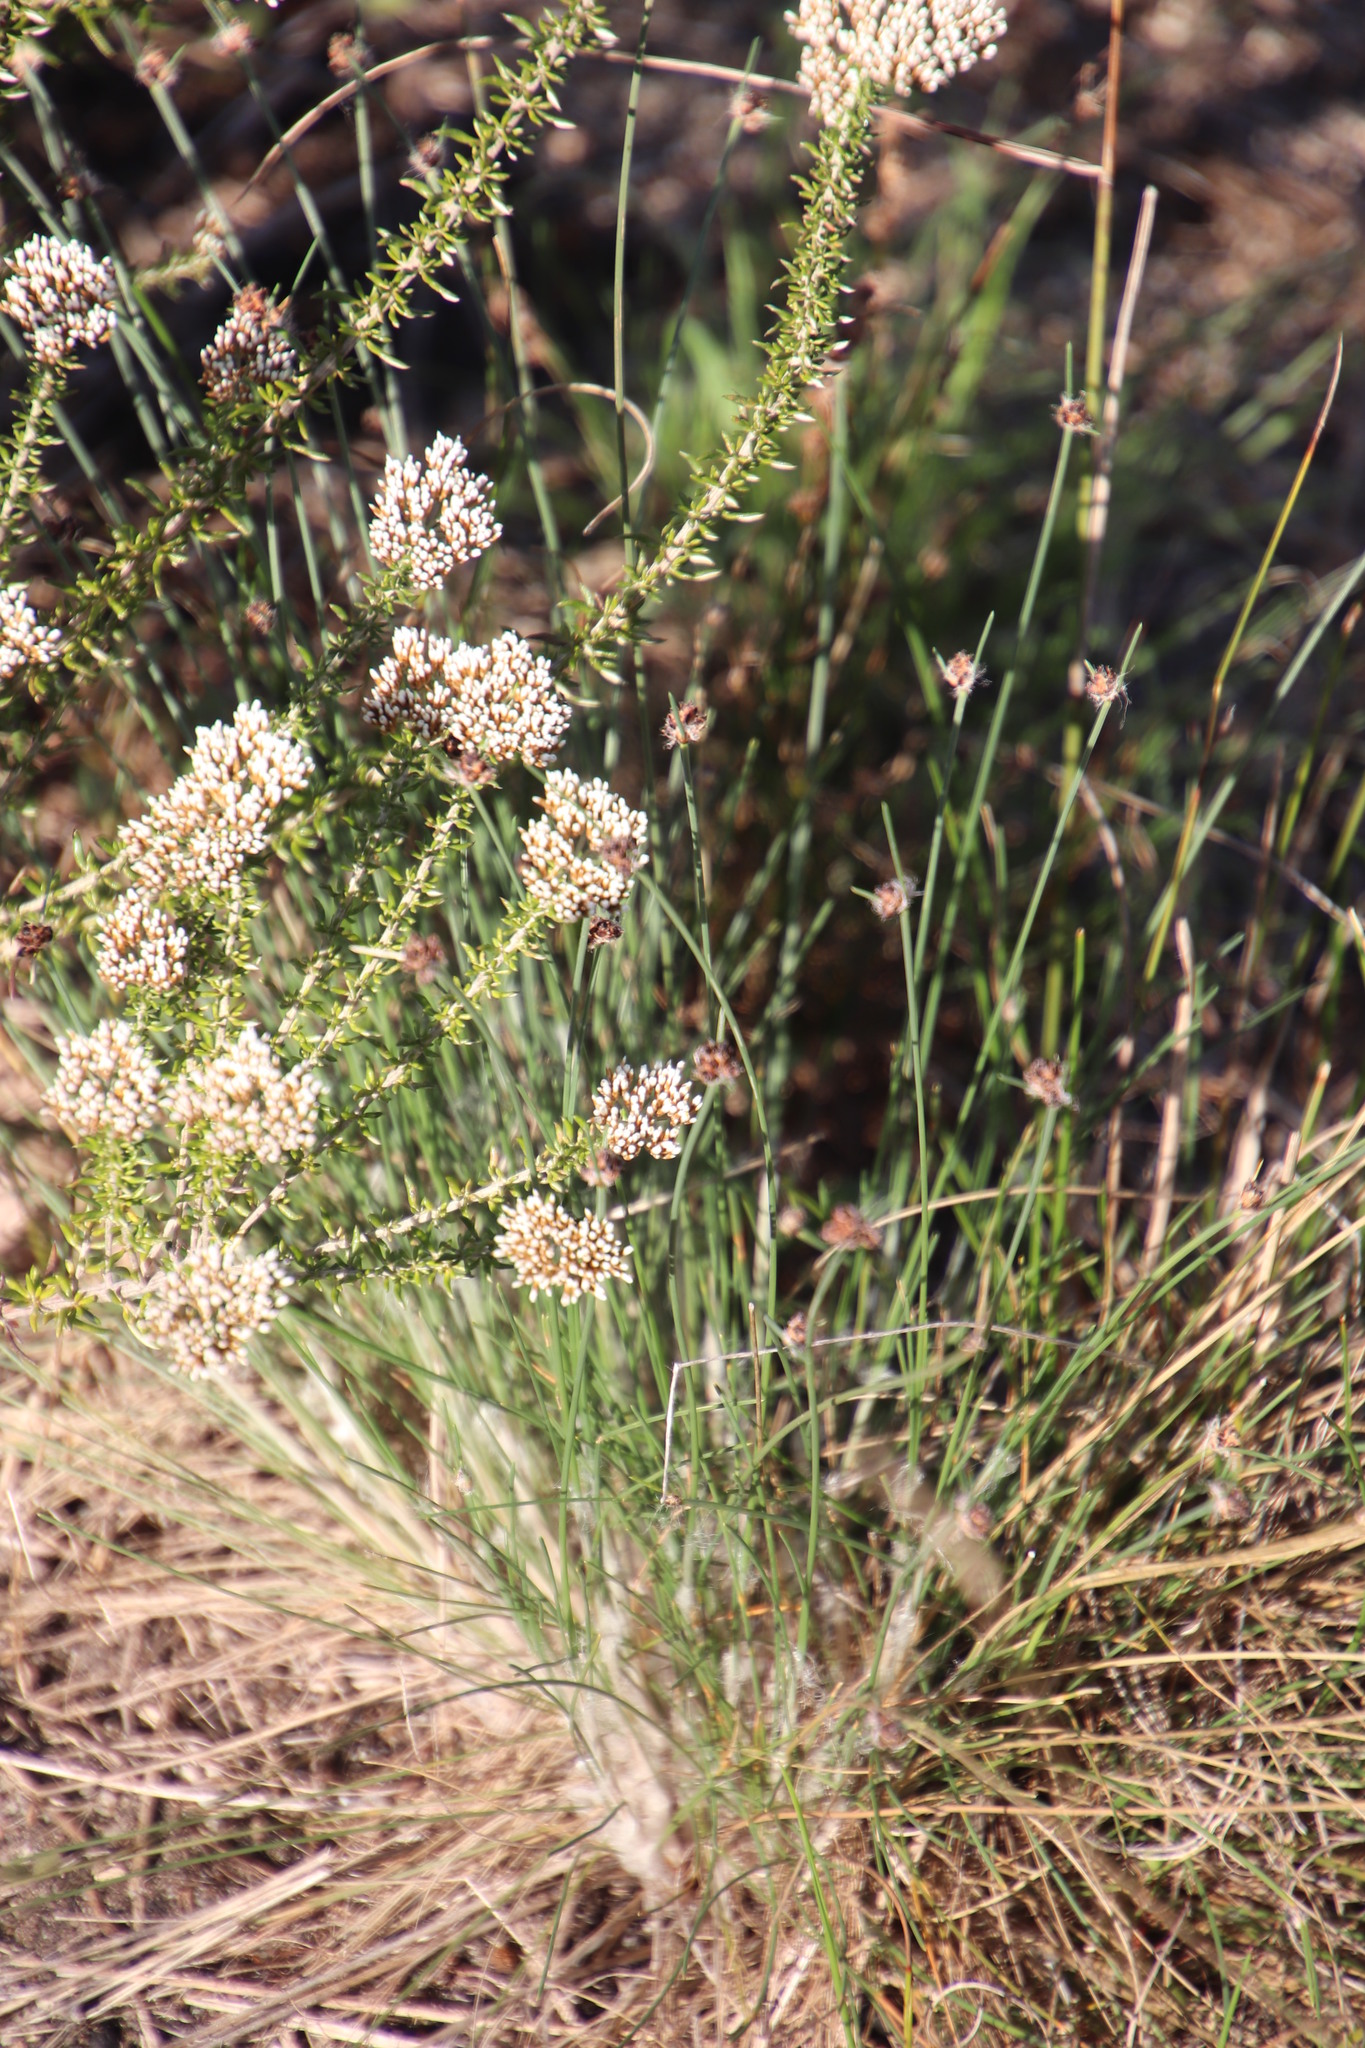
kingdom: Plantae
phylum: Tracheophyta
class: Liliopsida
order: Poales
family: Cyperaceae
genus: Ficinia
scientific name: Ficinia paradoxa
